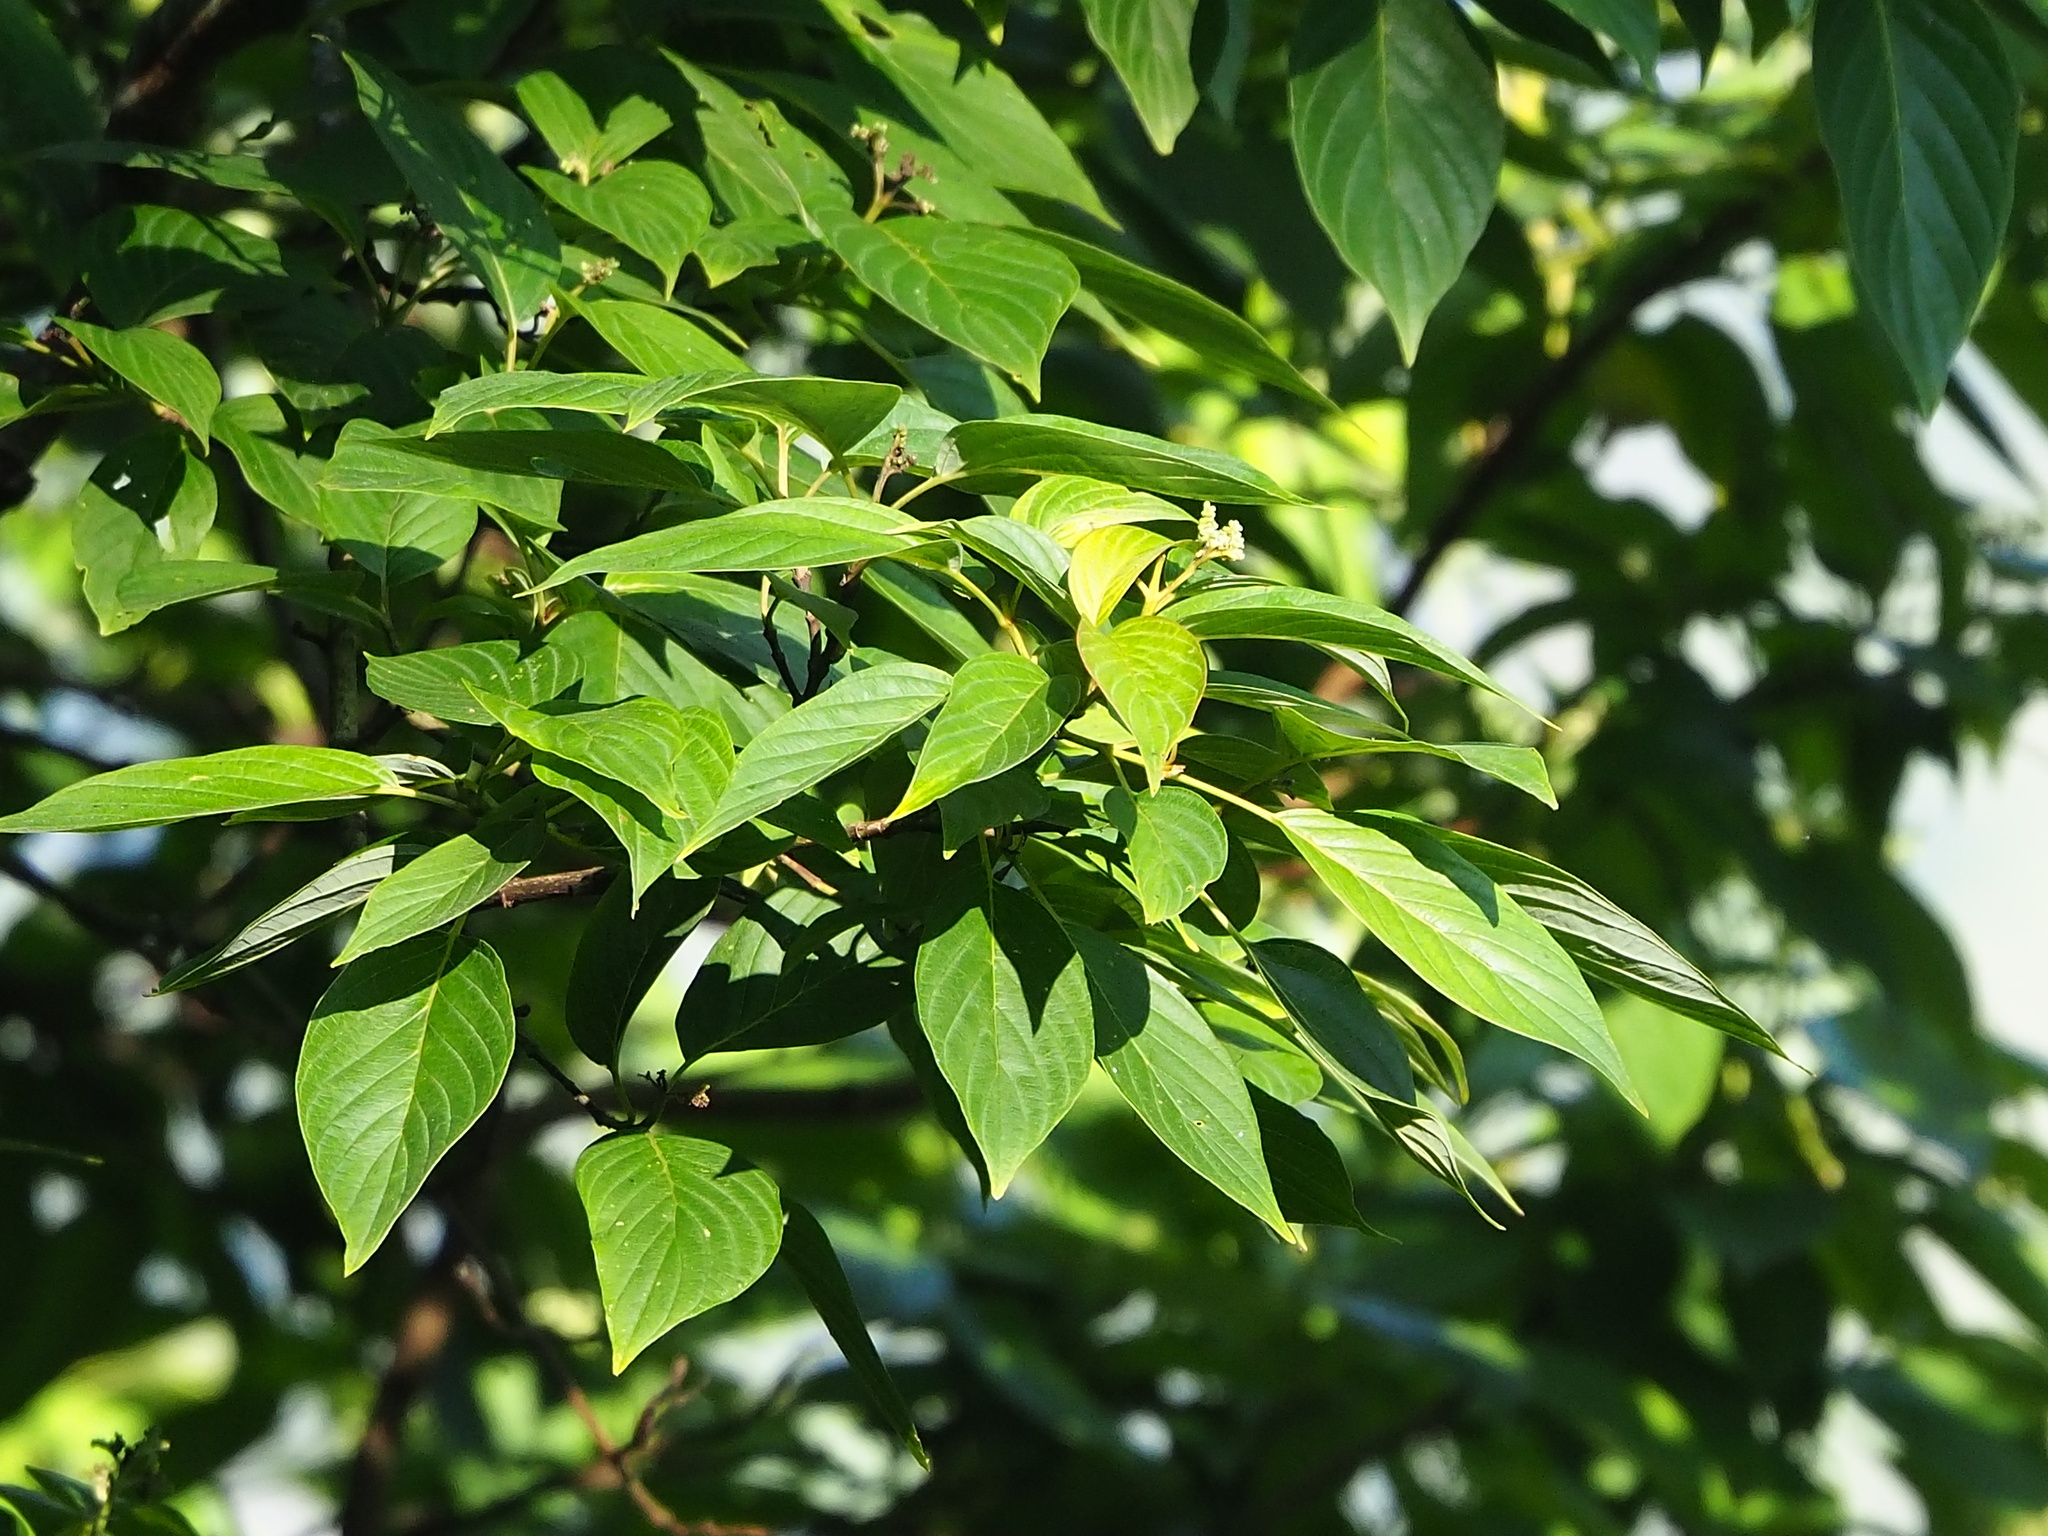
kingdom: Plantae
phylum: Tracheophyta
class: Magnoliopsida
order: Cornales
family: Cornaceae
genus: Cornus
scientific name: Cornus macrophylla
